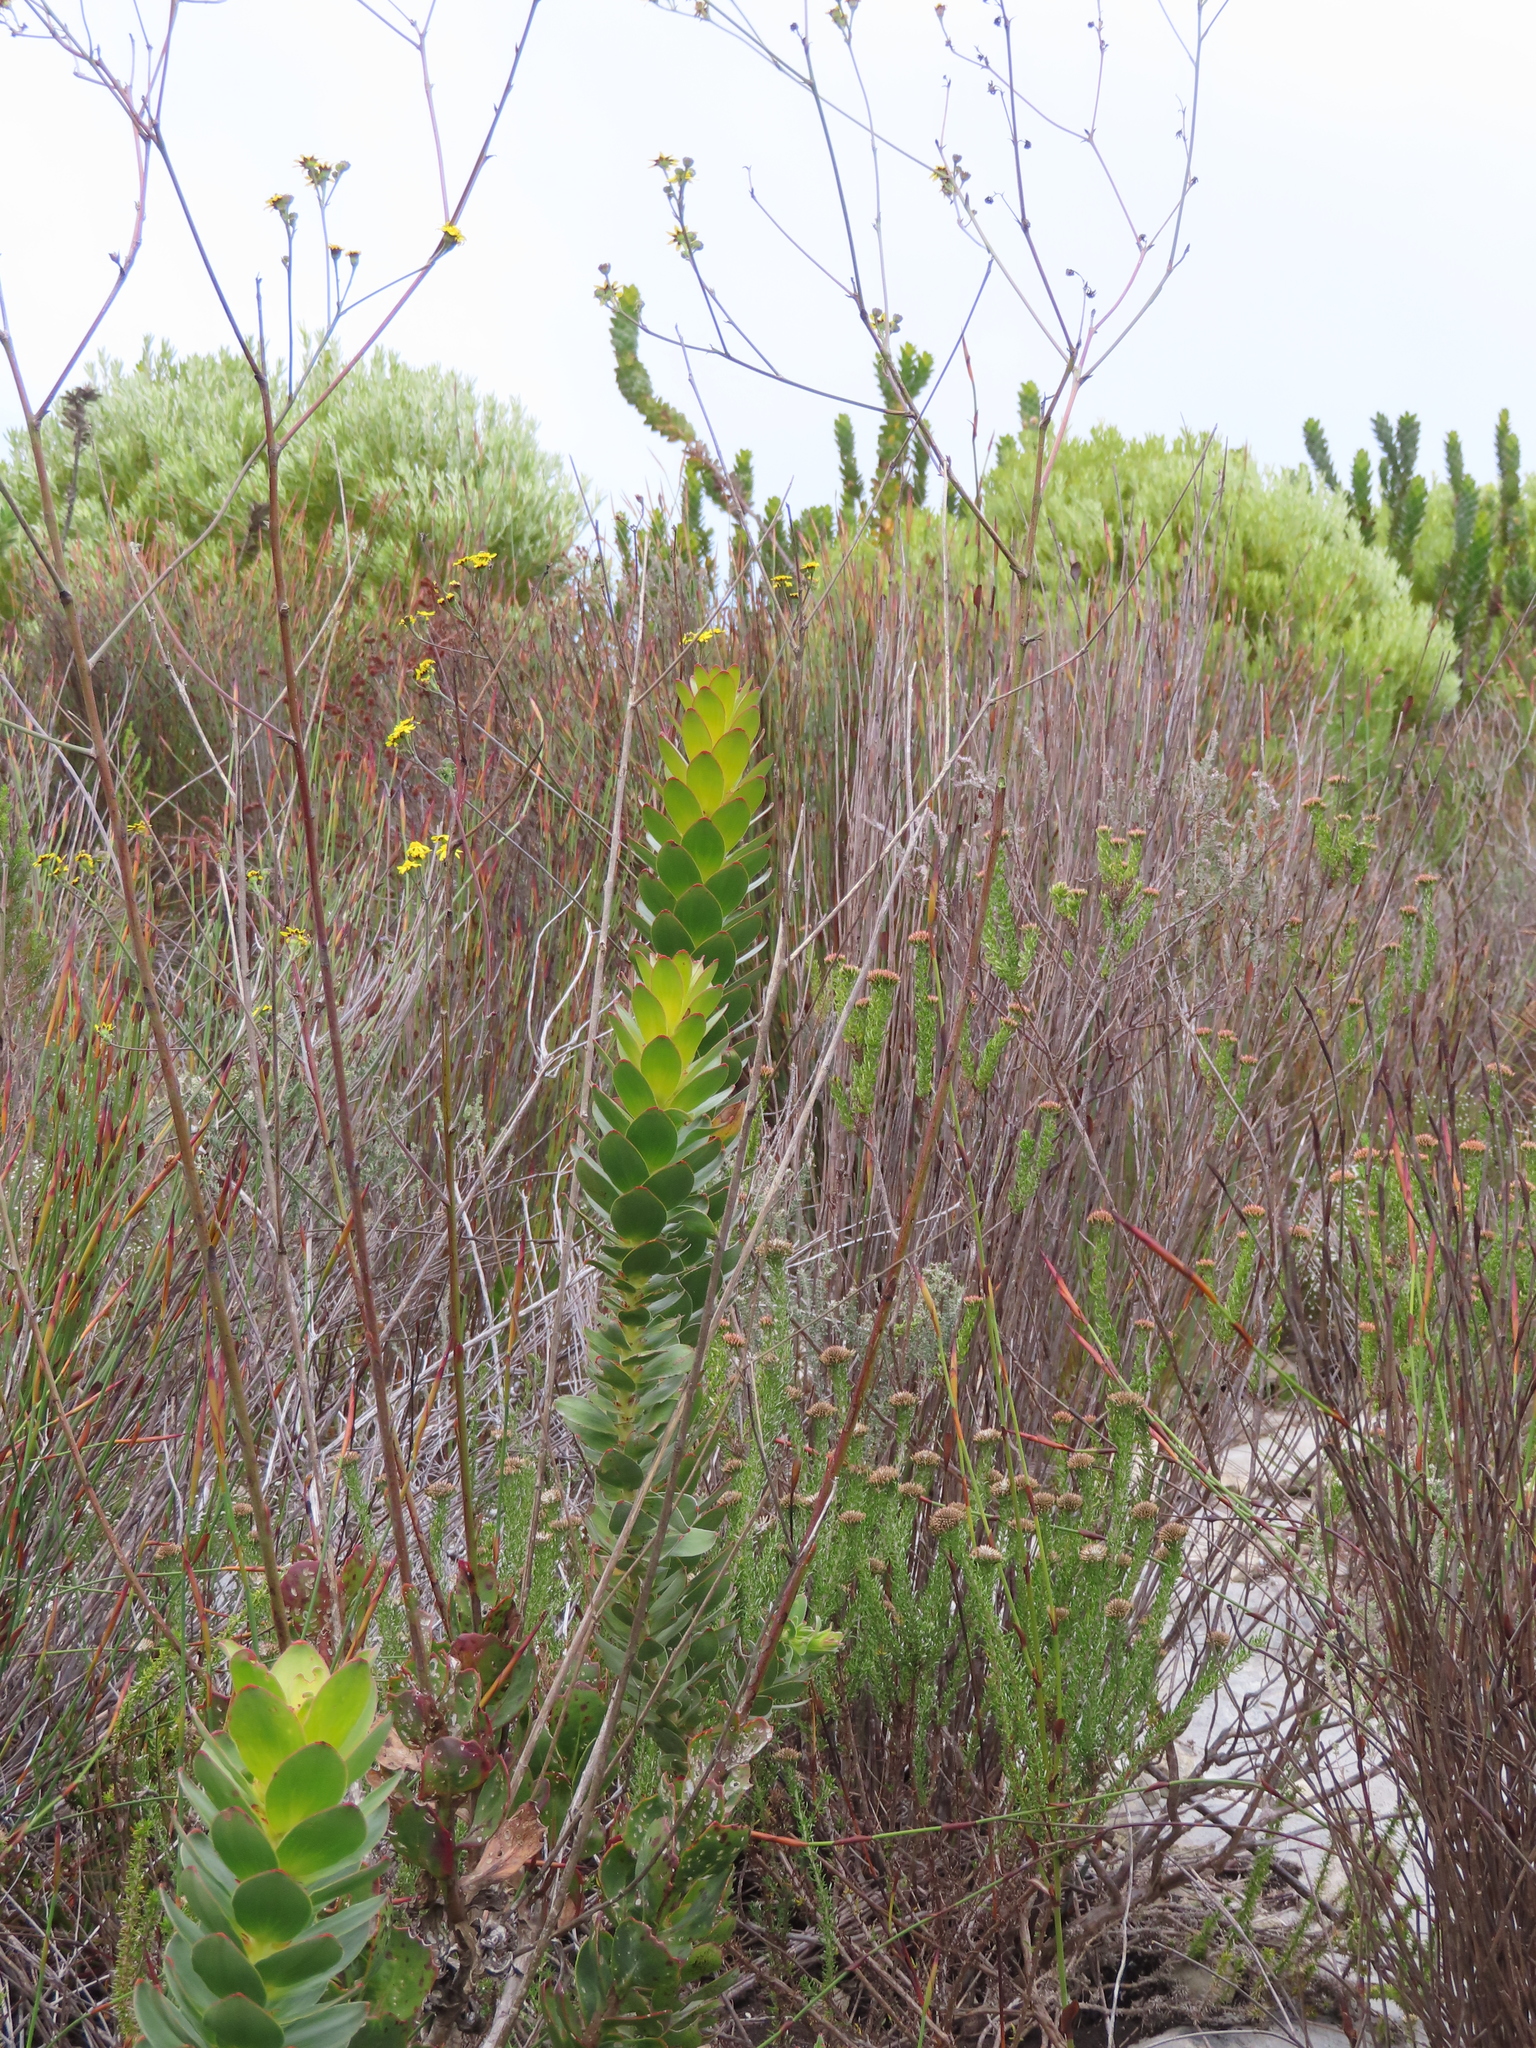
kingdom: Plantae
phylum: Tracheophyta
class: Magnoliopsida
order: Proteales
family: Proteaceae
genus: Mimetes
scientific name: Mimetes saxatilis
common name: Limestone pagoda
